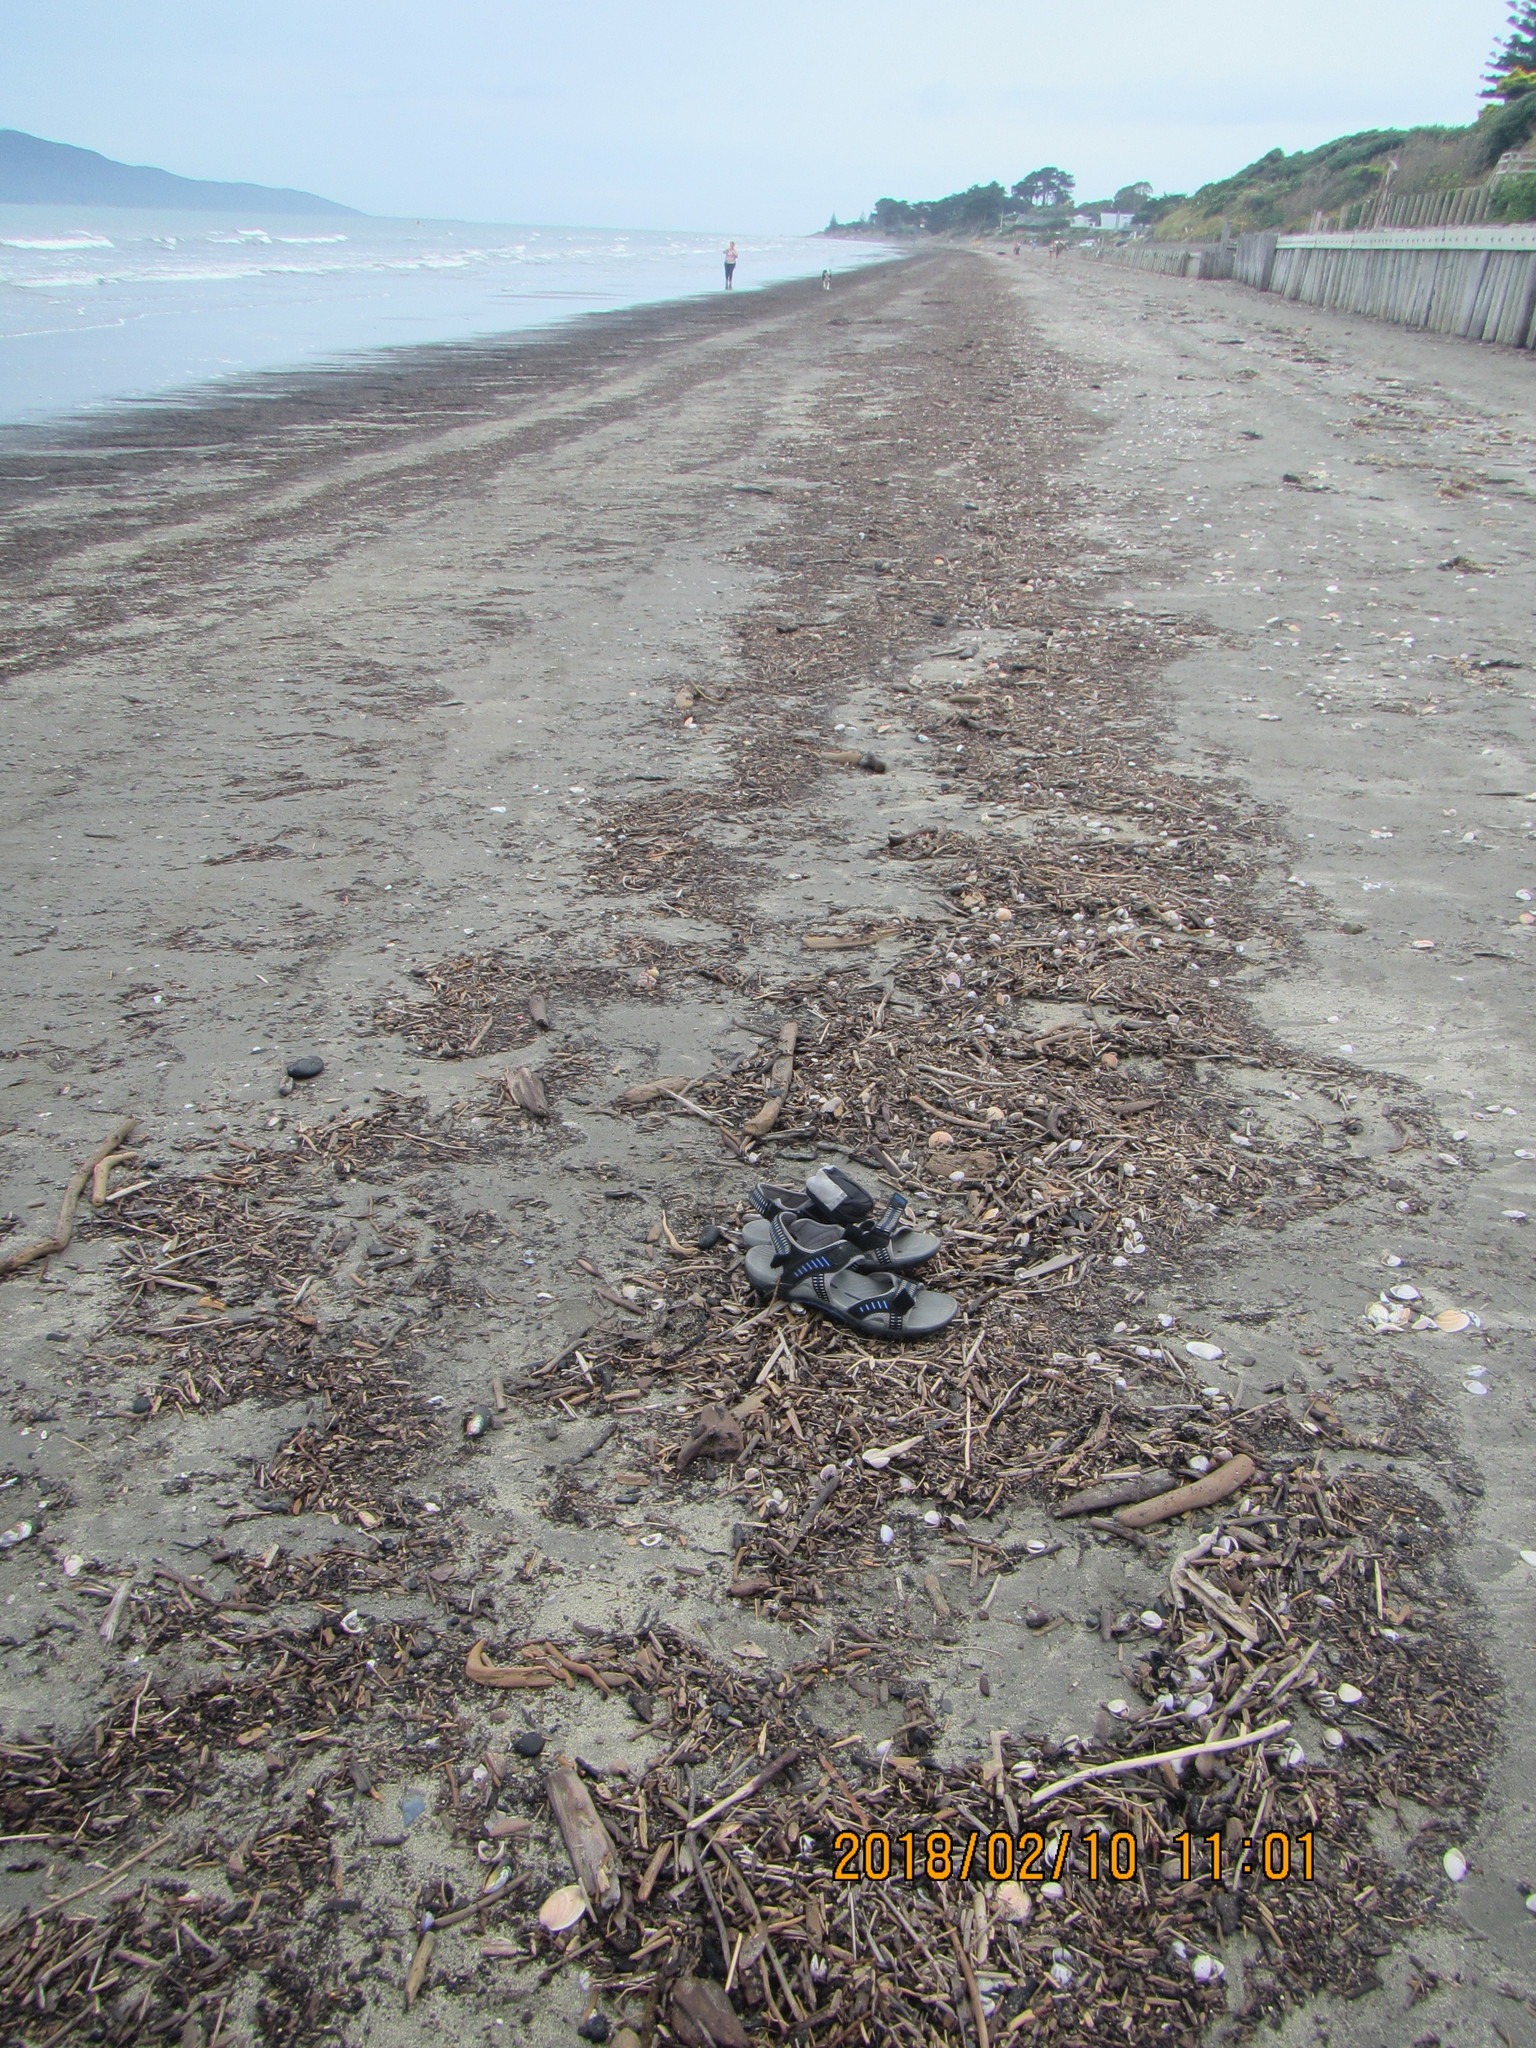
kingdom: Animalia
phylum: Mollusca
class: Bivalvia
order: Venerida
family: Veneridae
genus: Dosinia
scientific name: Dosinia anus
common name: Old-woman dosinia
